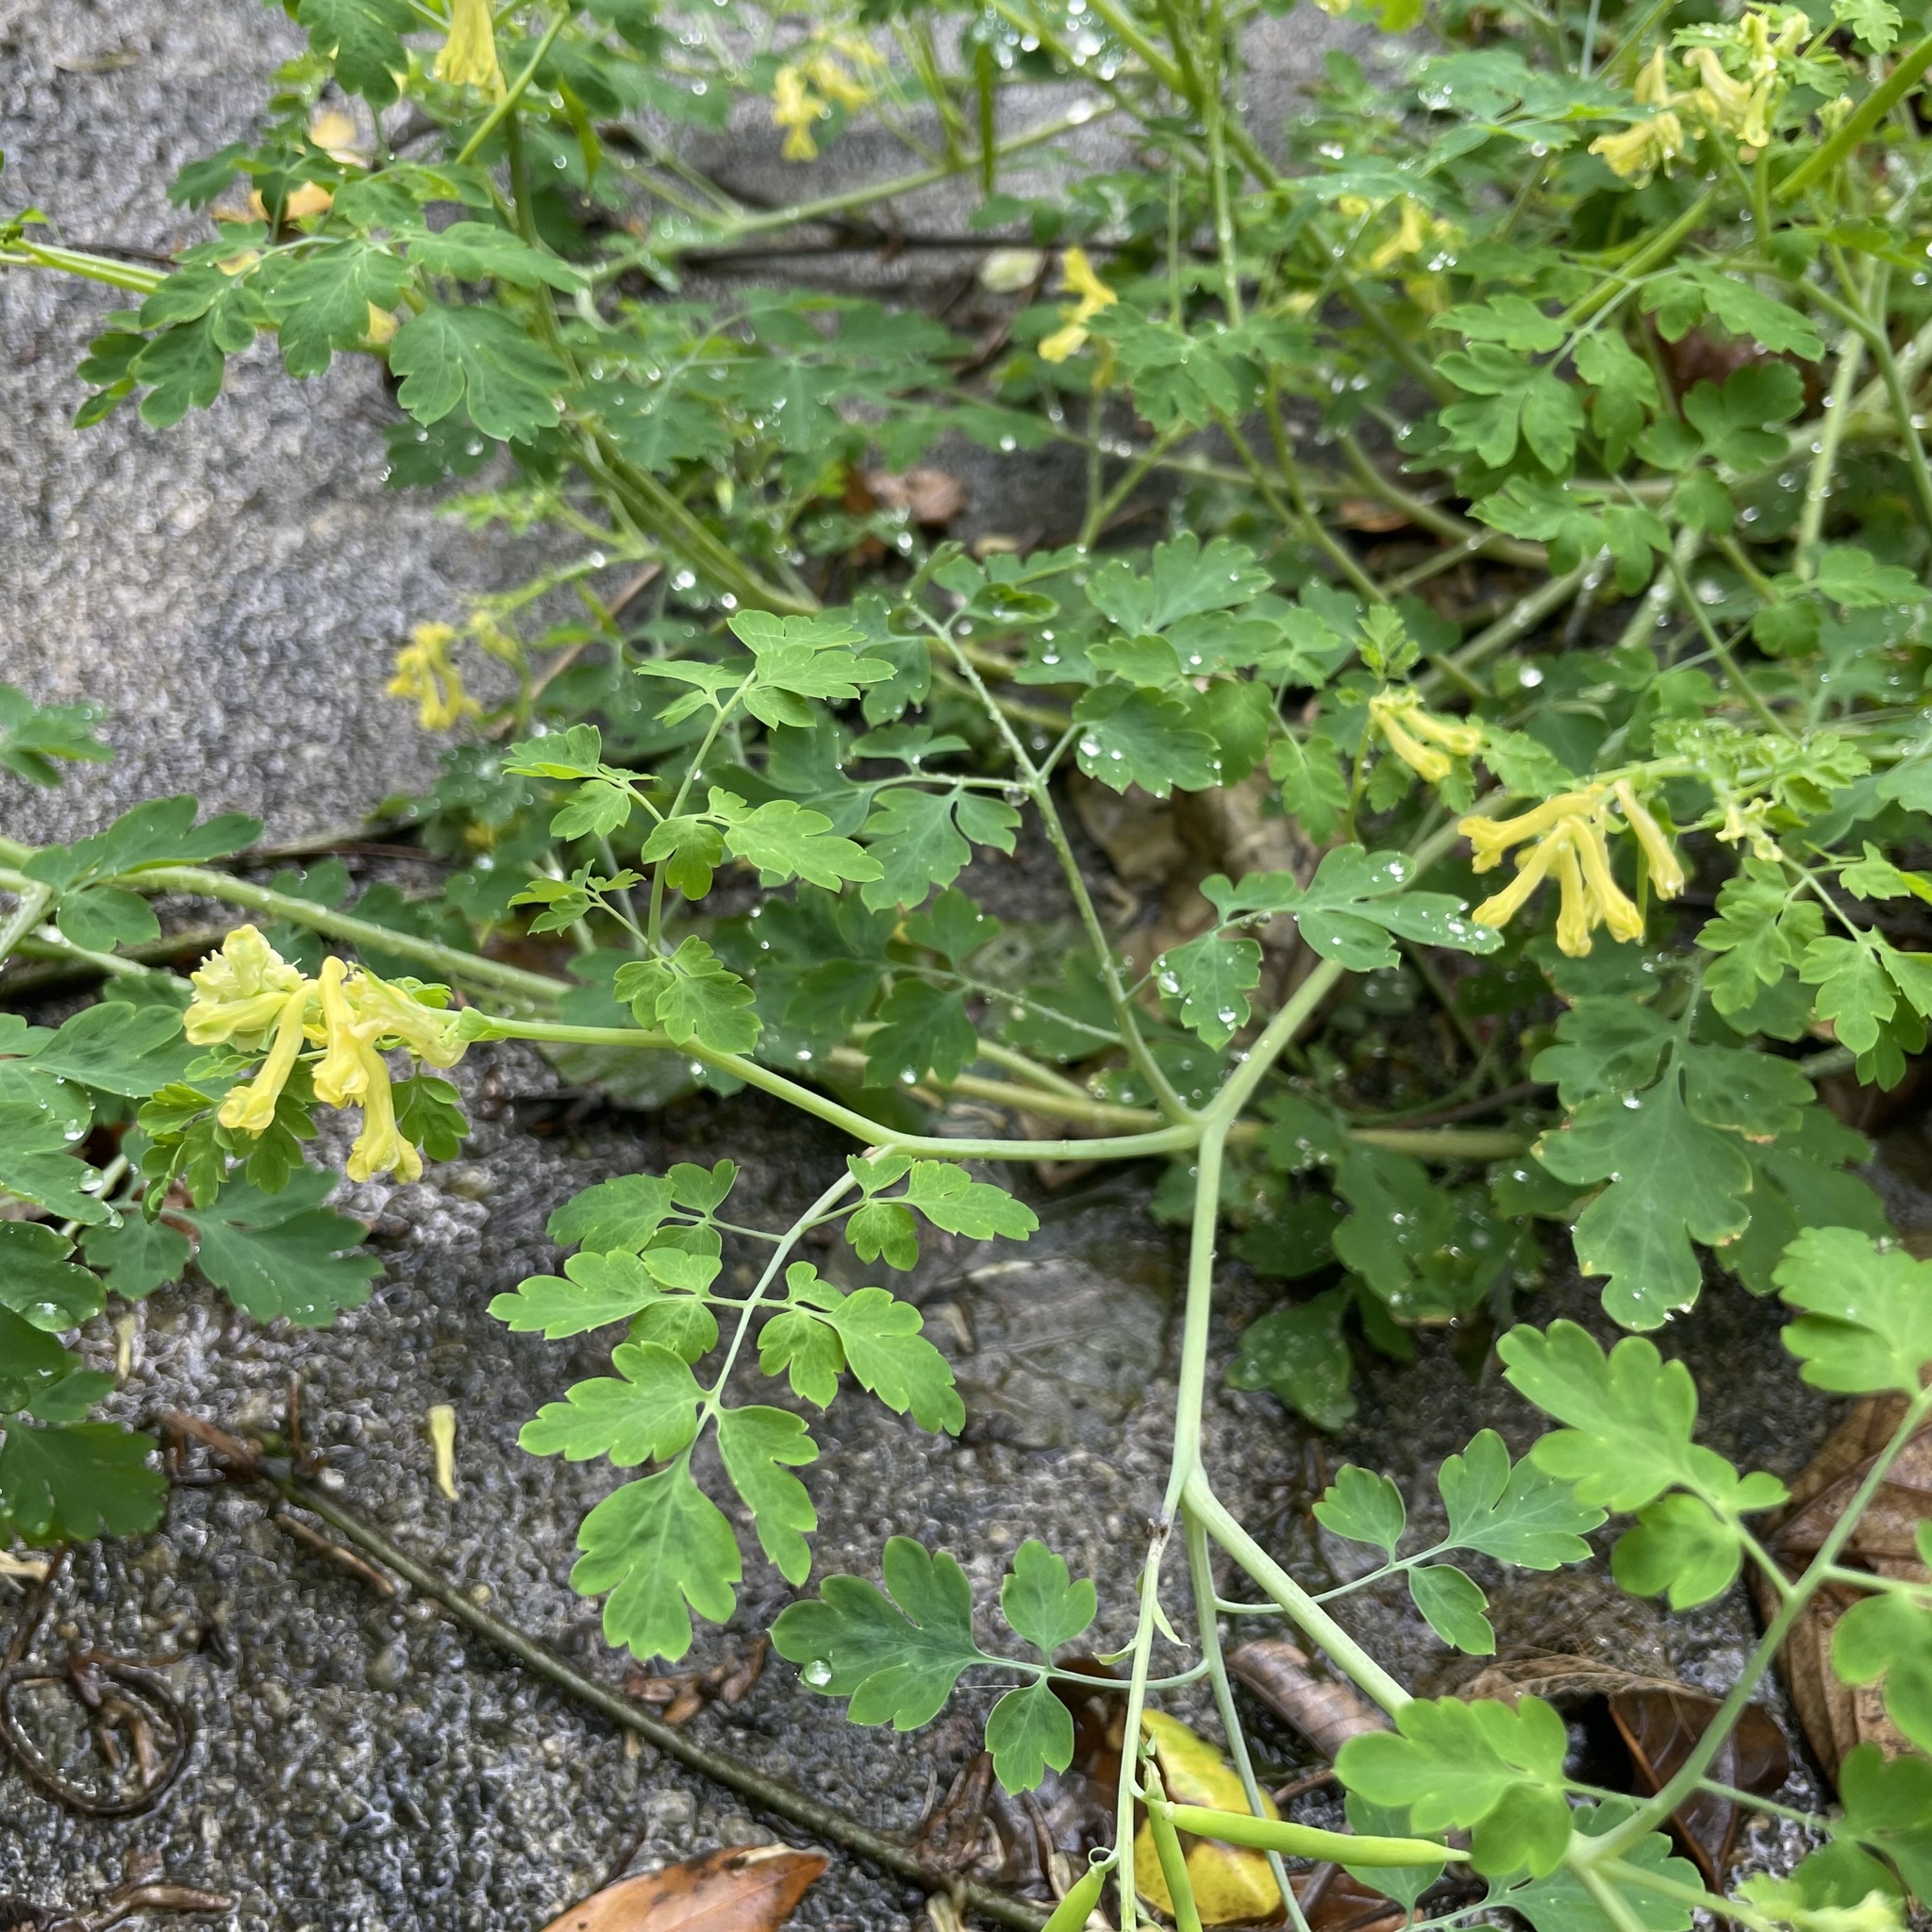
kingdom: Plantae
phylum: Tracheophyta
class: Magnoliopsida
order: Ranunculales
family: Papaveraceae
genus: Corydalis
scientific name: Corydalis balansae
